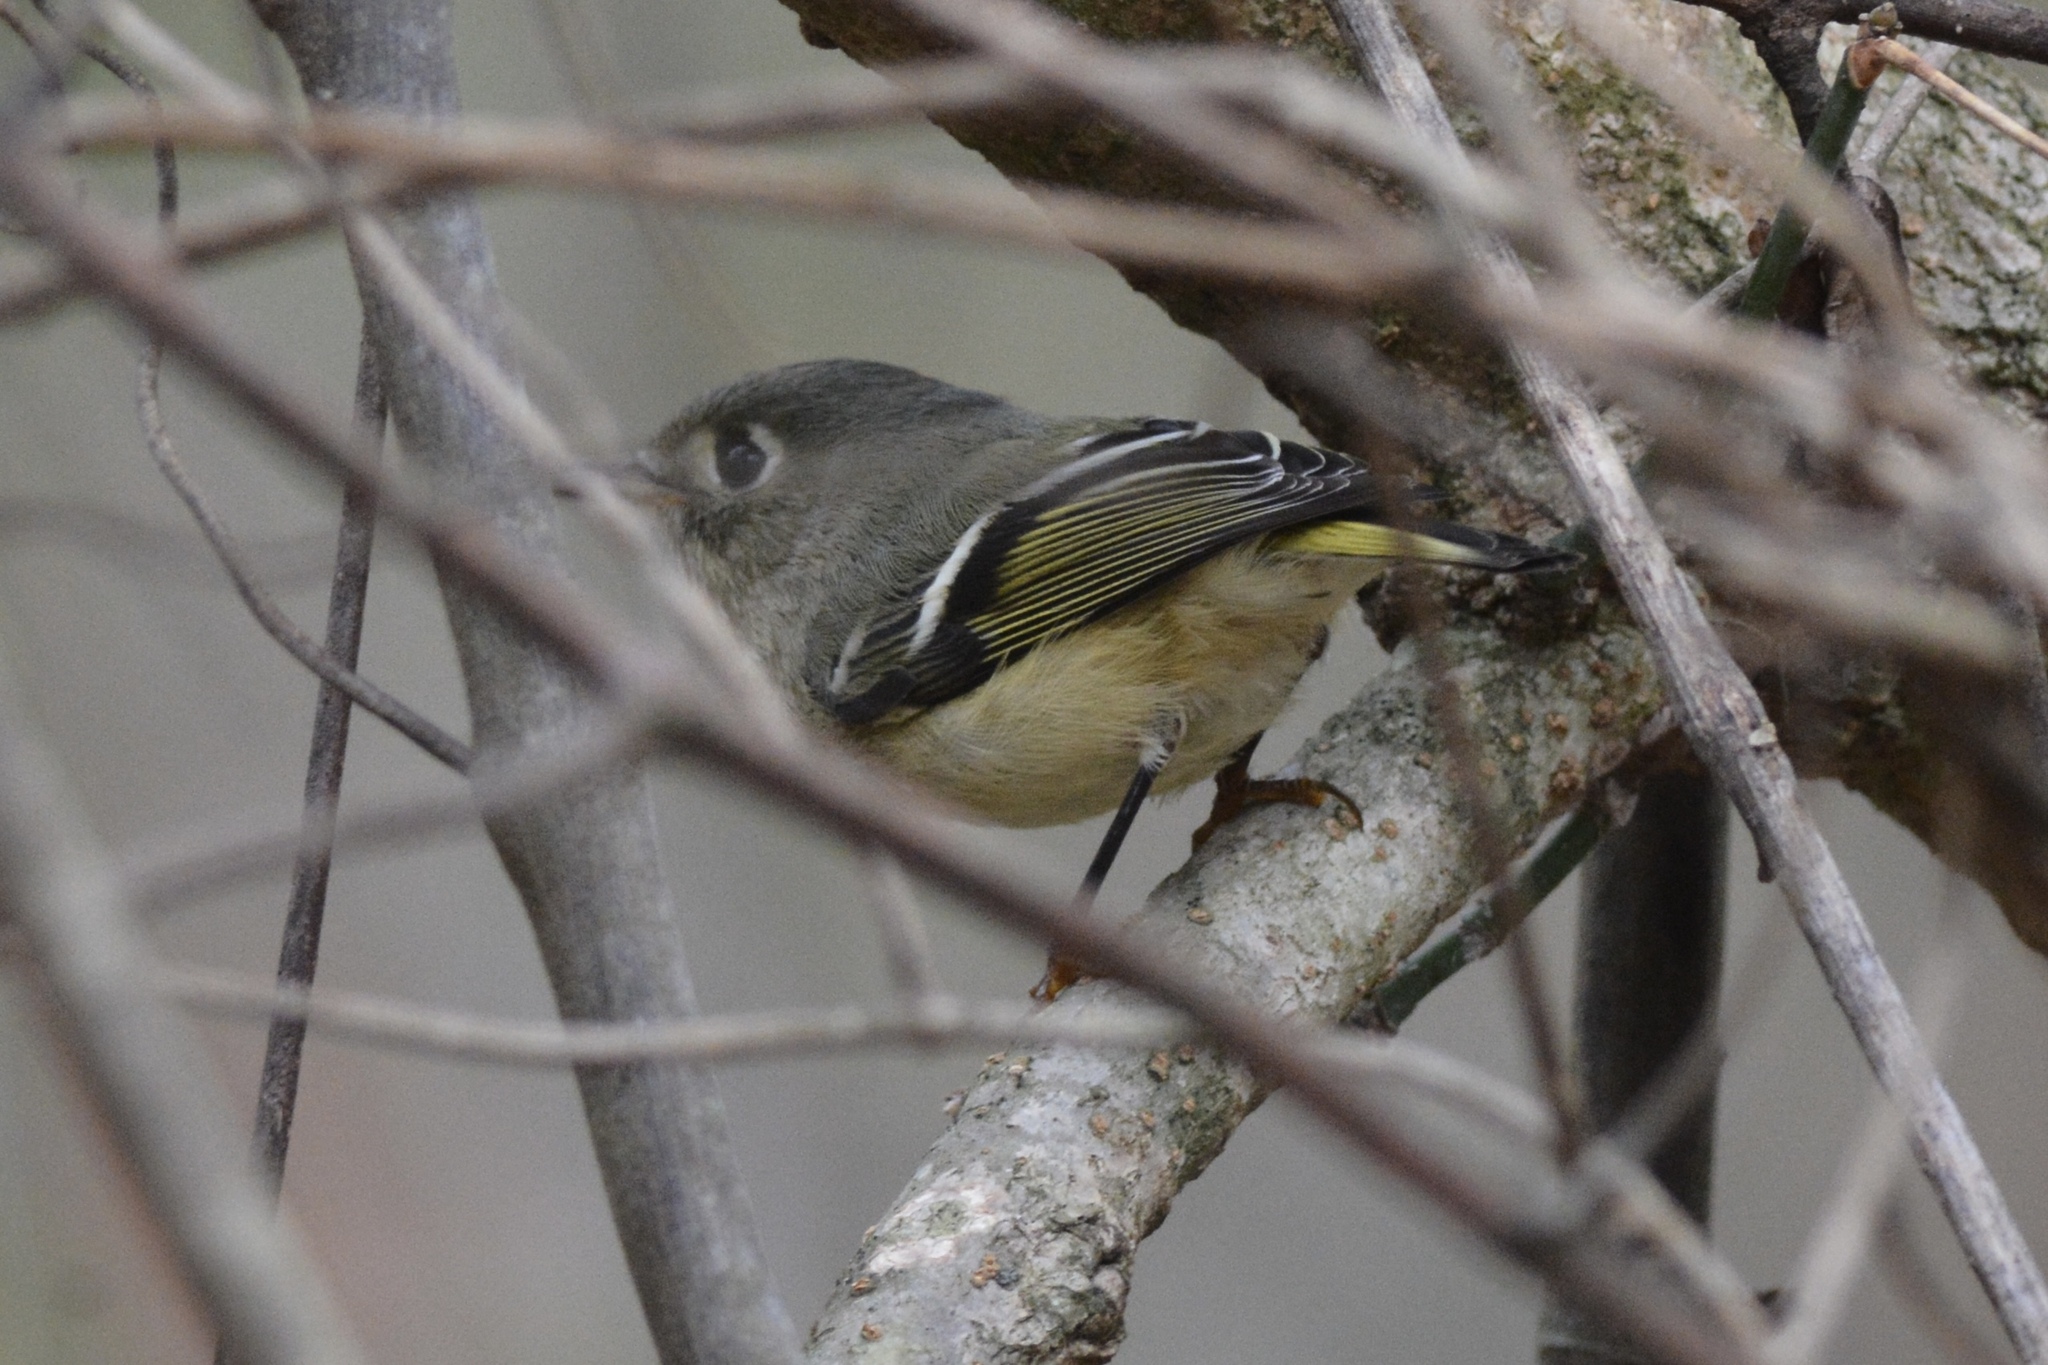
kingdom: Animalia
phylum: Chordata
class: Aves
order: Passeriformes
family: Regulidae
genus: Regulus
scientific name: Regulus calendula
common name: Ruby-crowned kinglet
